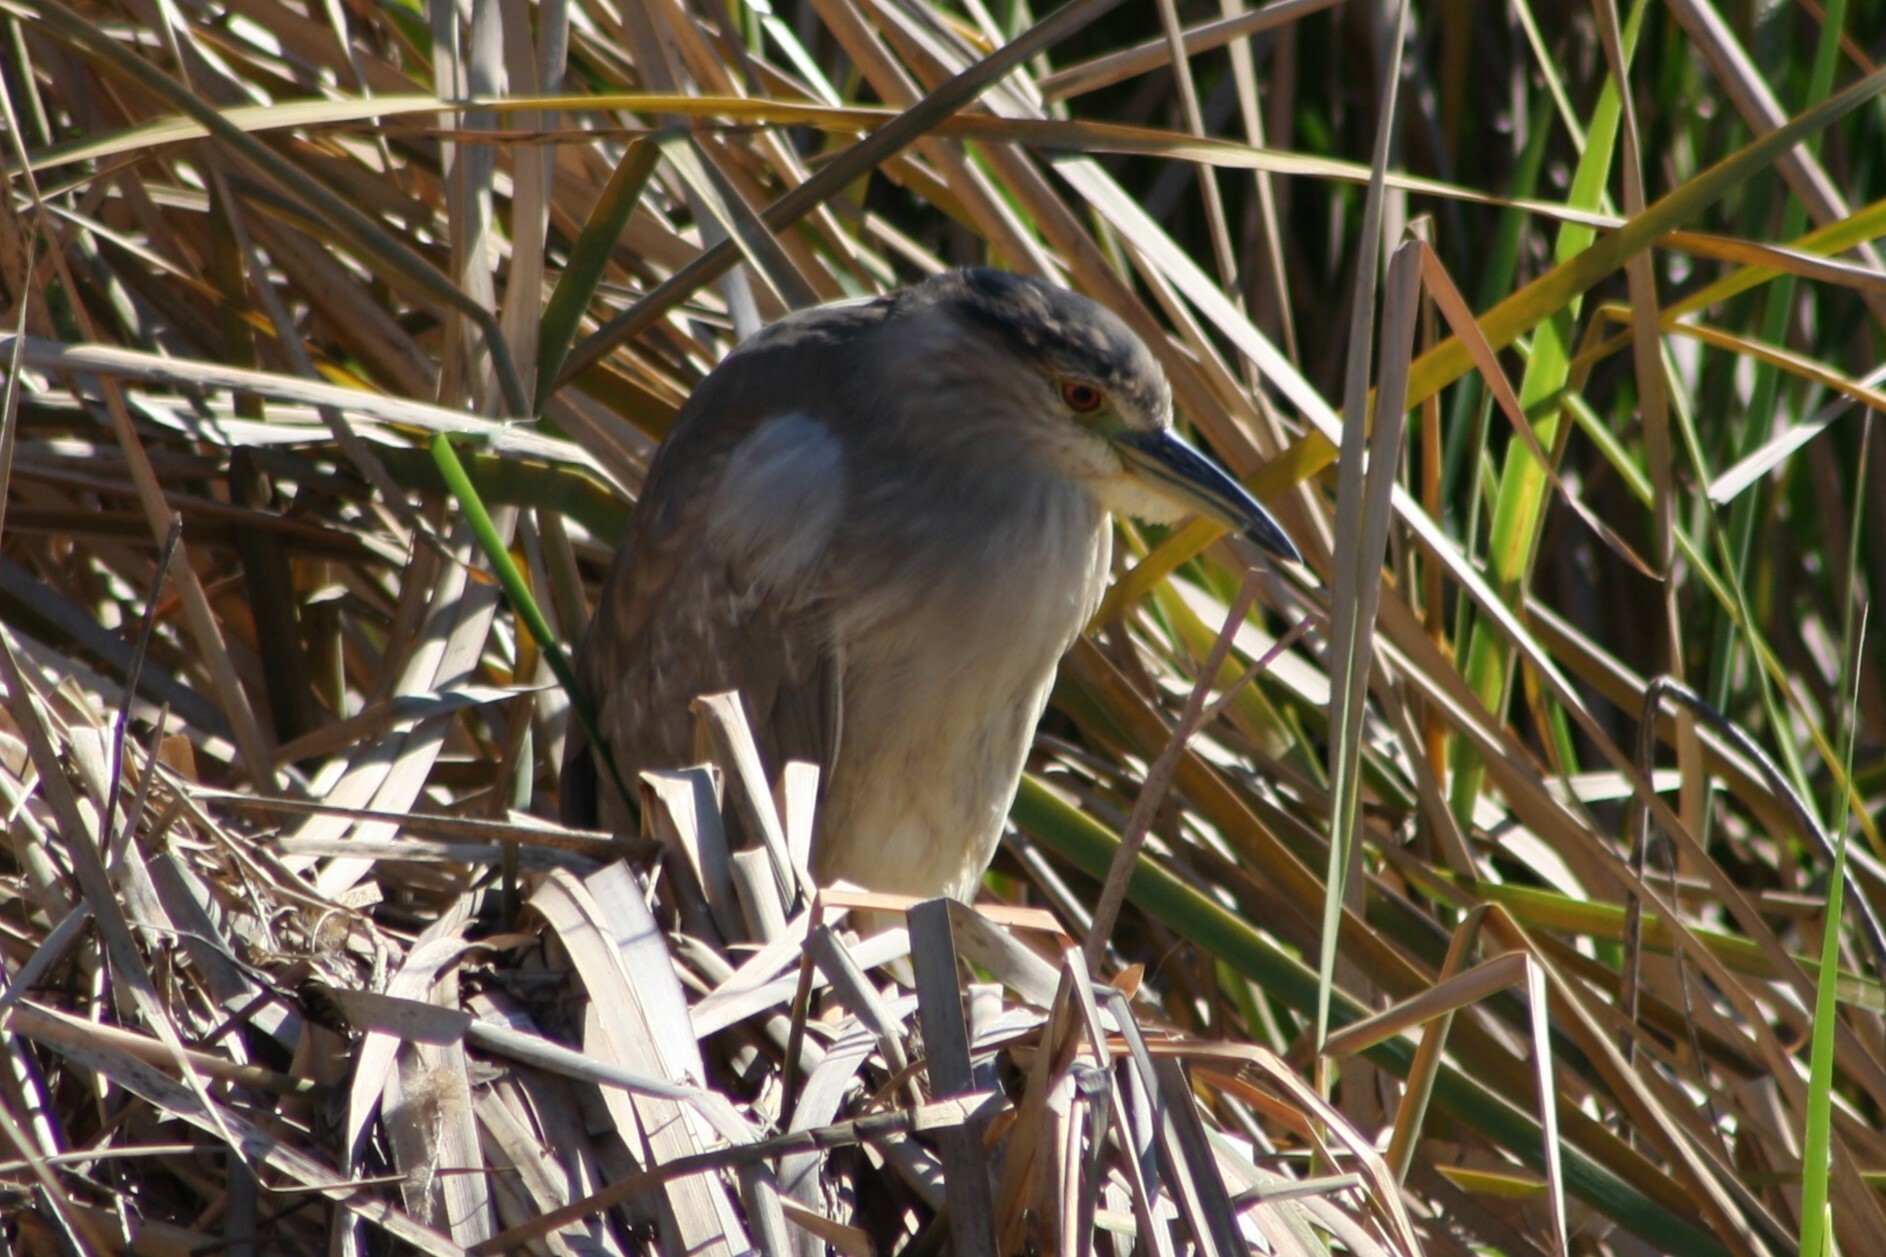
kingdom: Animalia
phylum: Chordata
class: Aves
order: Pelecaniformes
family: Ardeidae
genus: Nycticorax
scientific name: Nycticorax nycticorax
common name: Black-crowned night heron
